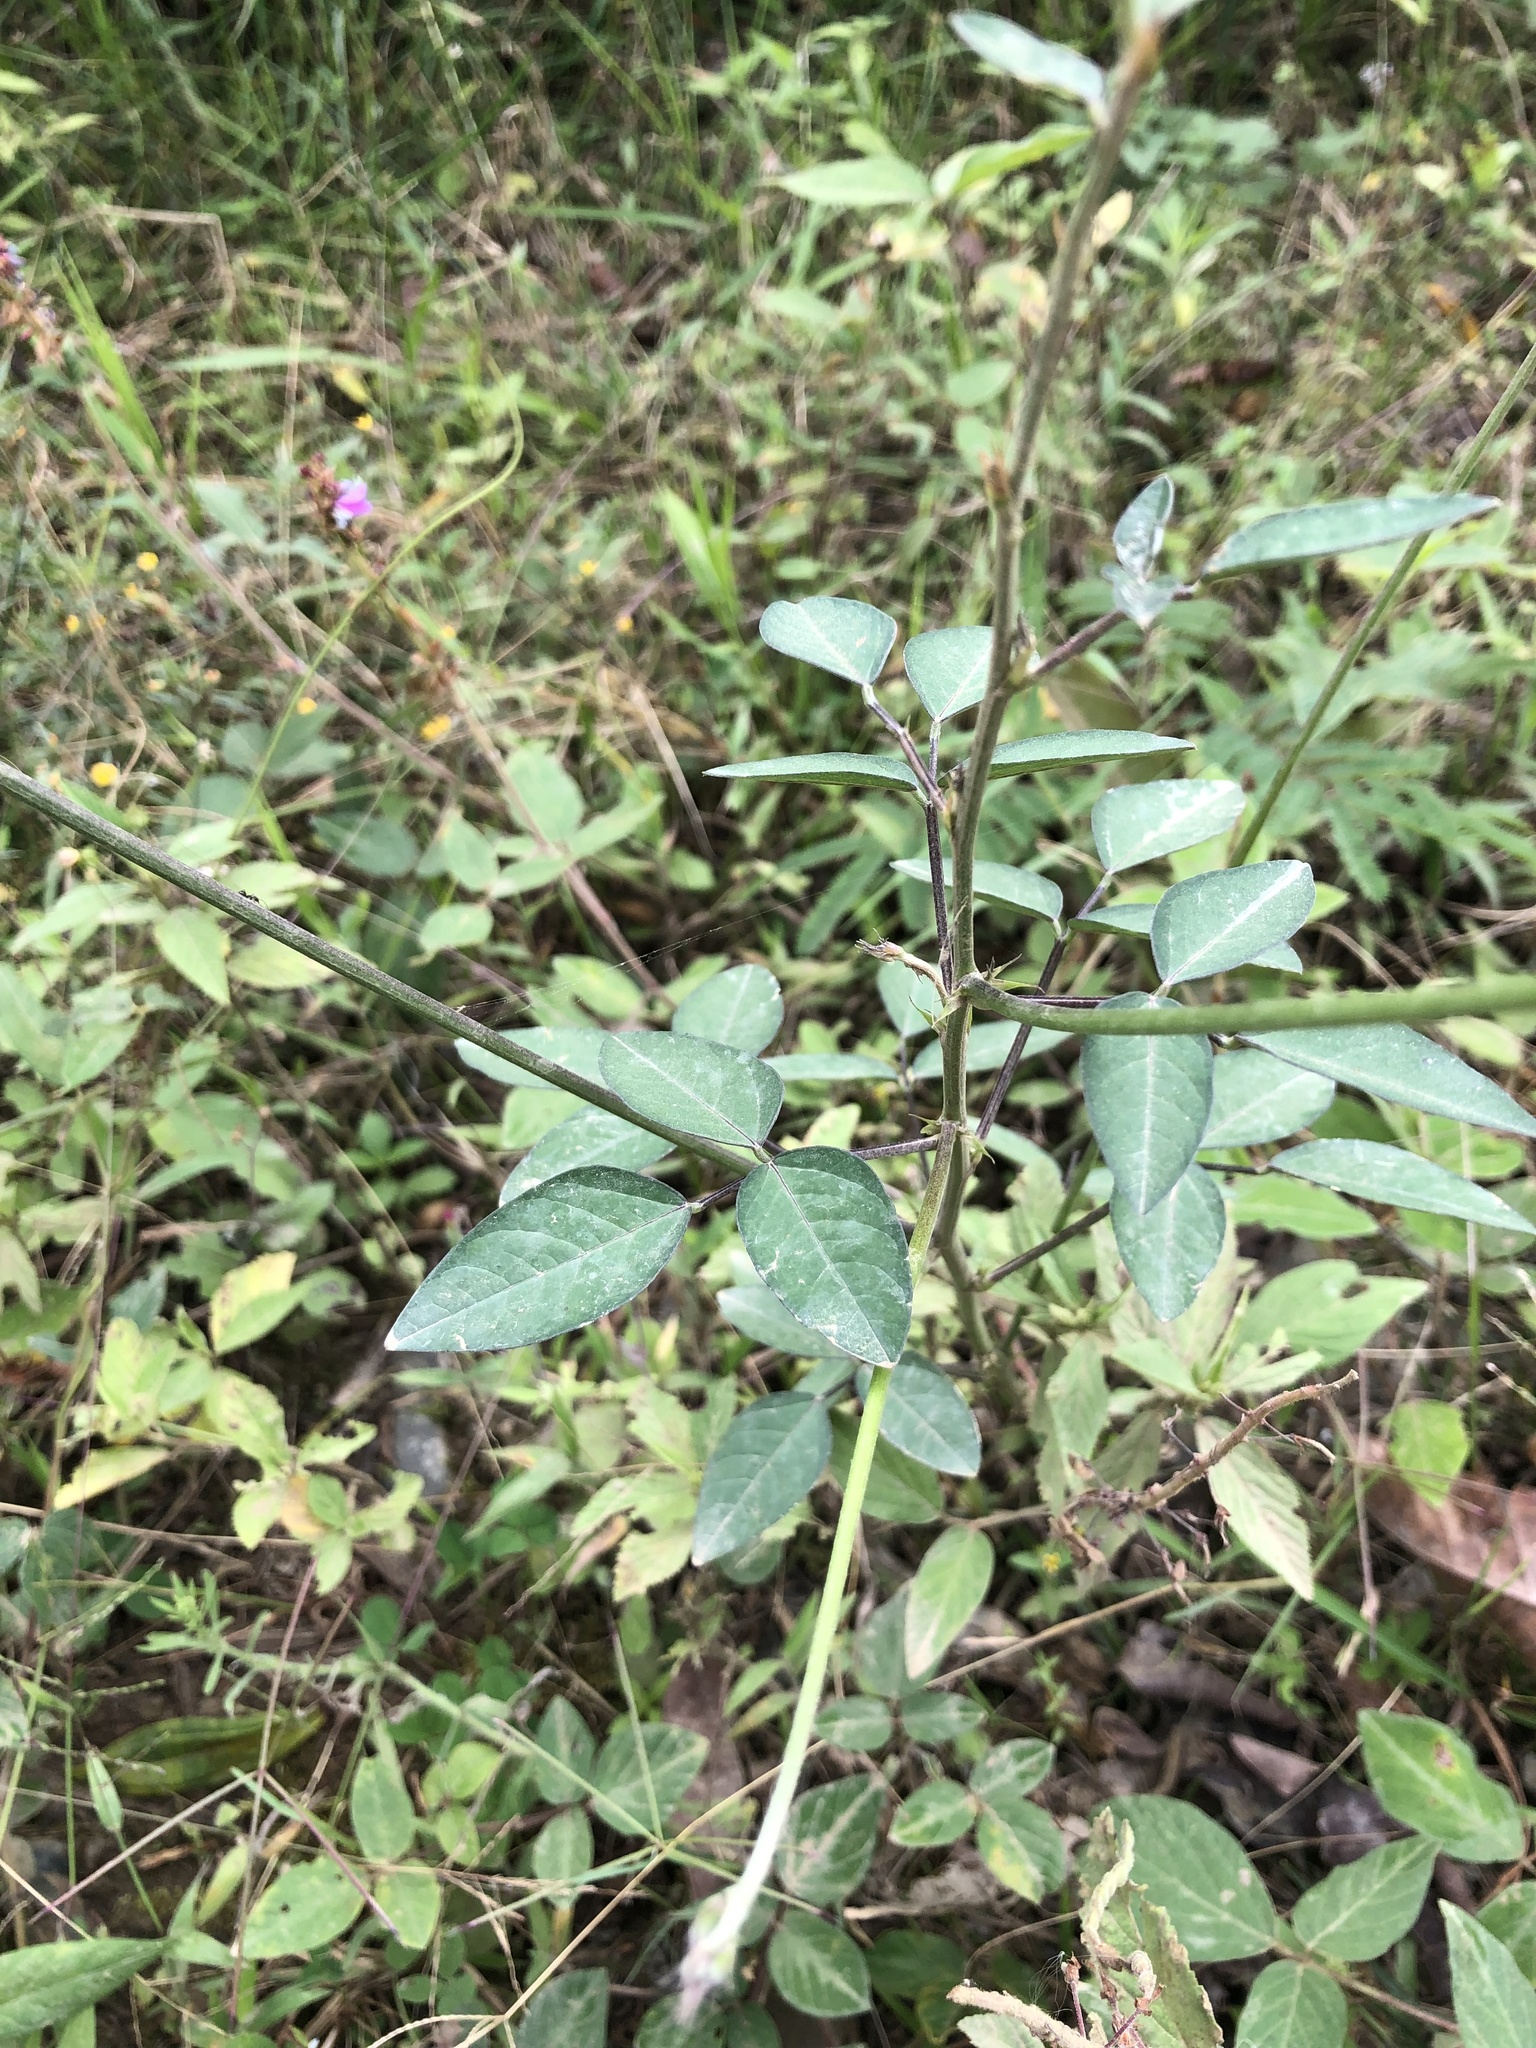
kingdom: Plantae
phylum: Tracheophyta
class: Magnoliopsida
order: Fabales
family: Fabaceae
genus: Macroptilium
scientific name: Macroptilium lathyroides
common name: Wild bushbean
